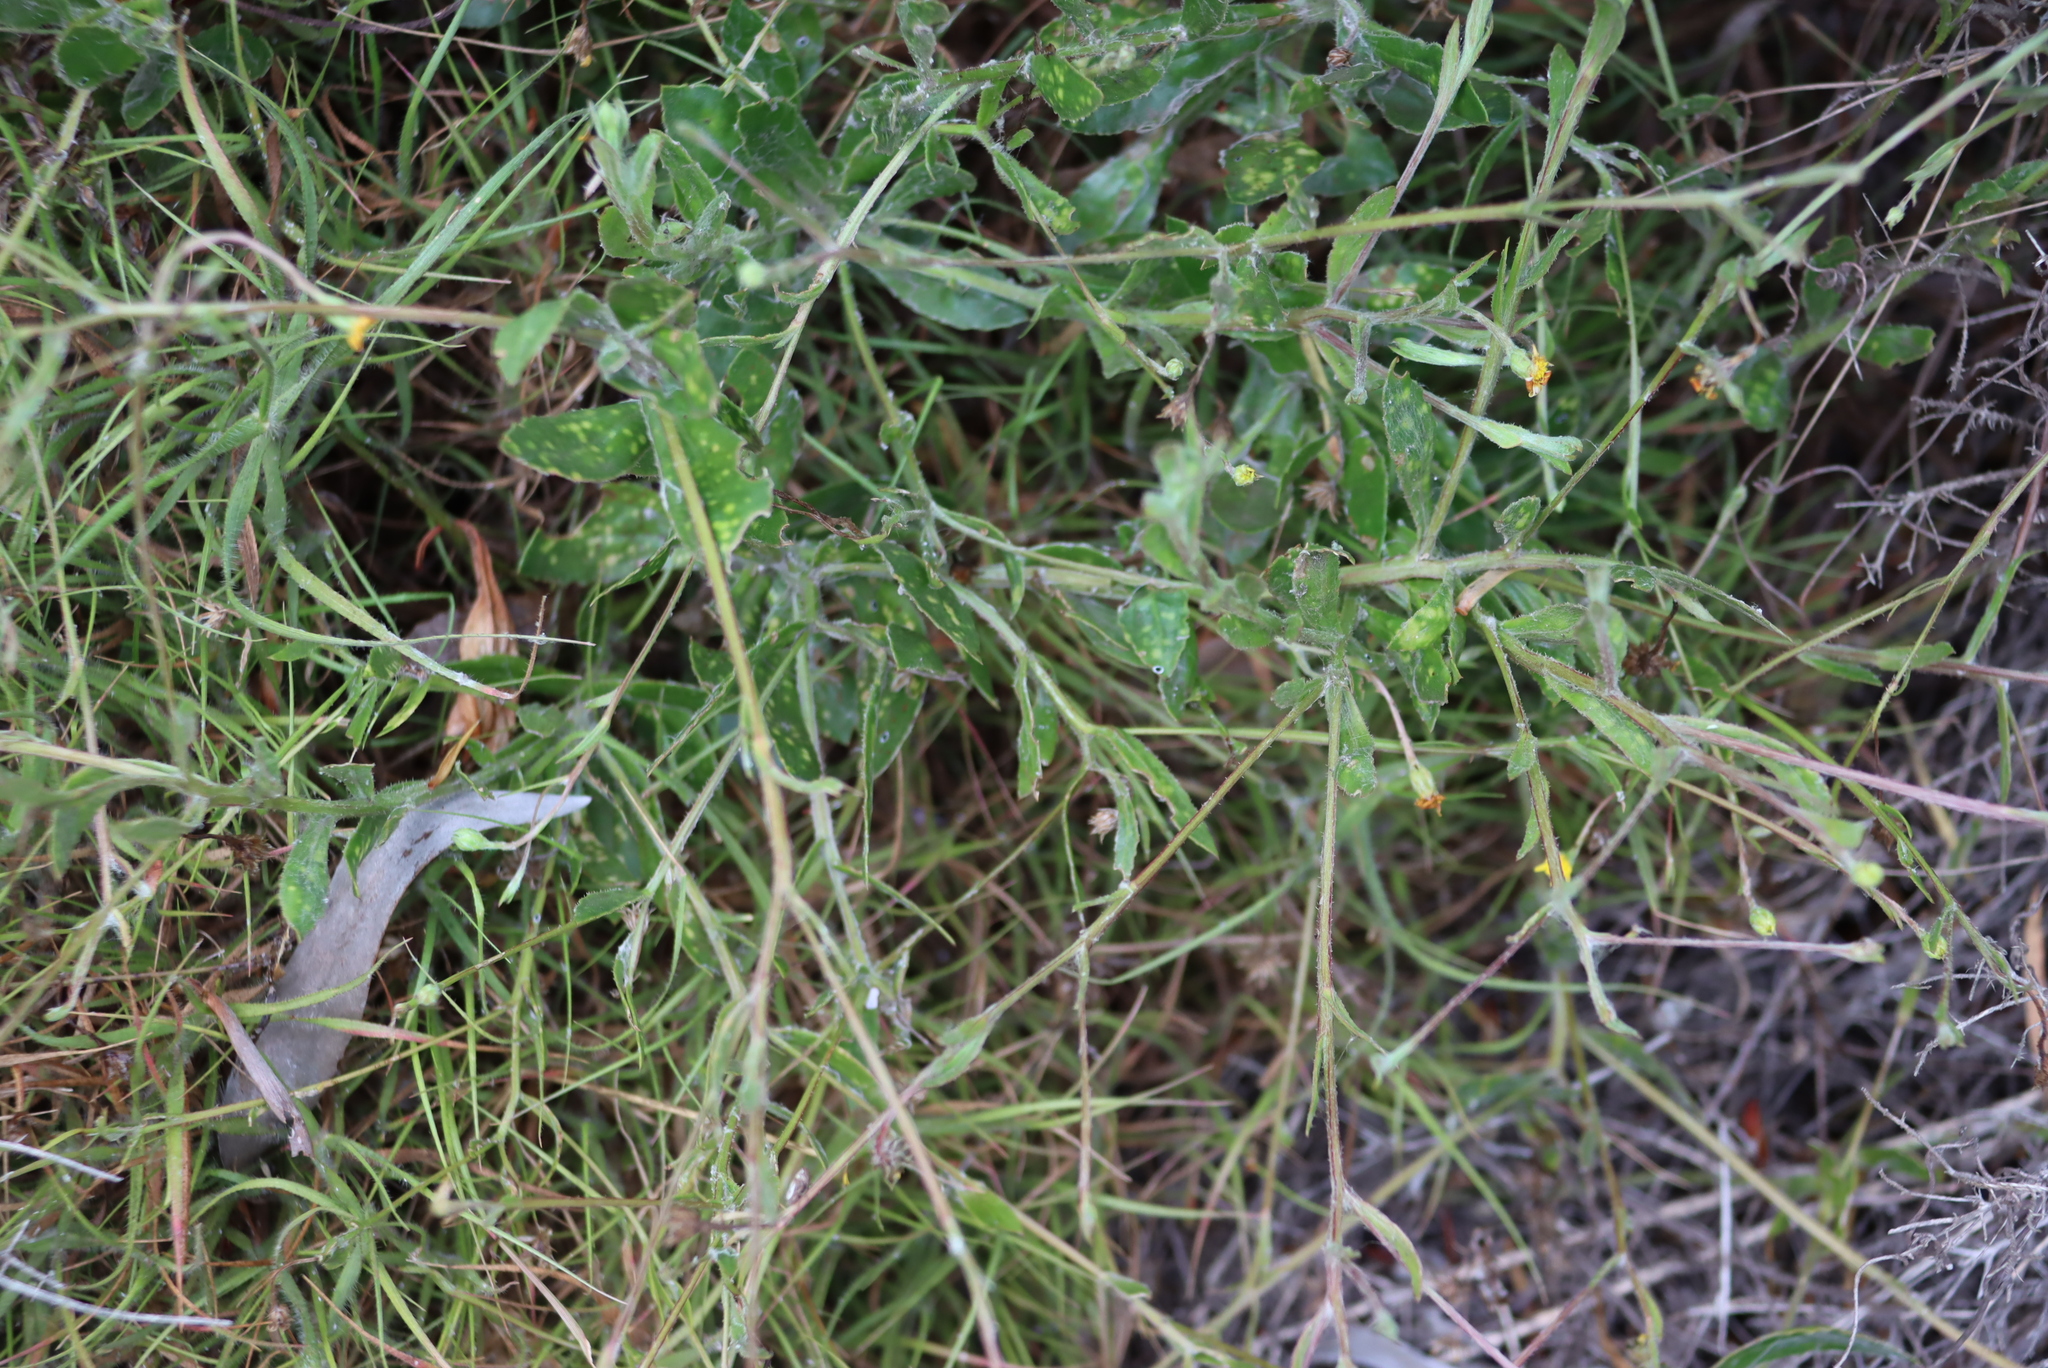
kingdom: Plantae
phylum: Tracheophyta
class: Magnoliopsida
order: Asterales
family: Asteraceae
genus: Osteospermum
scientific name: Osteospermum ciliatum
